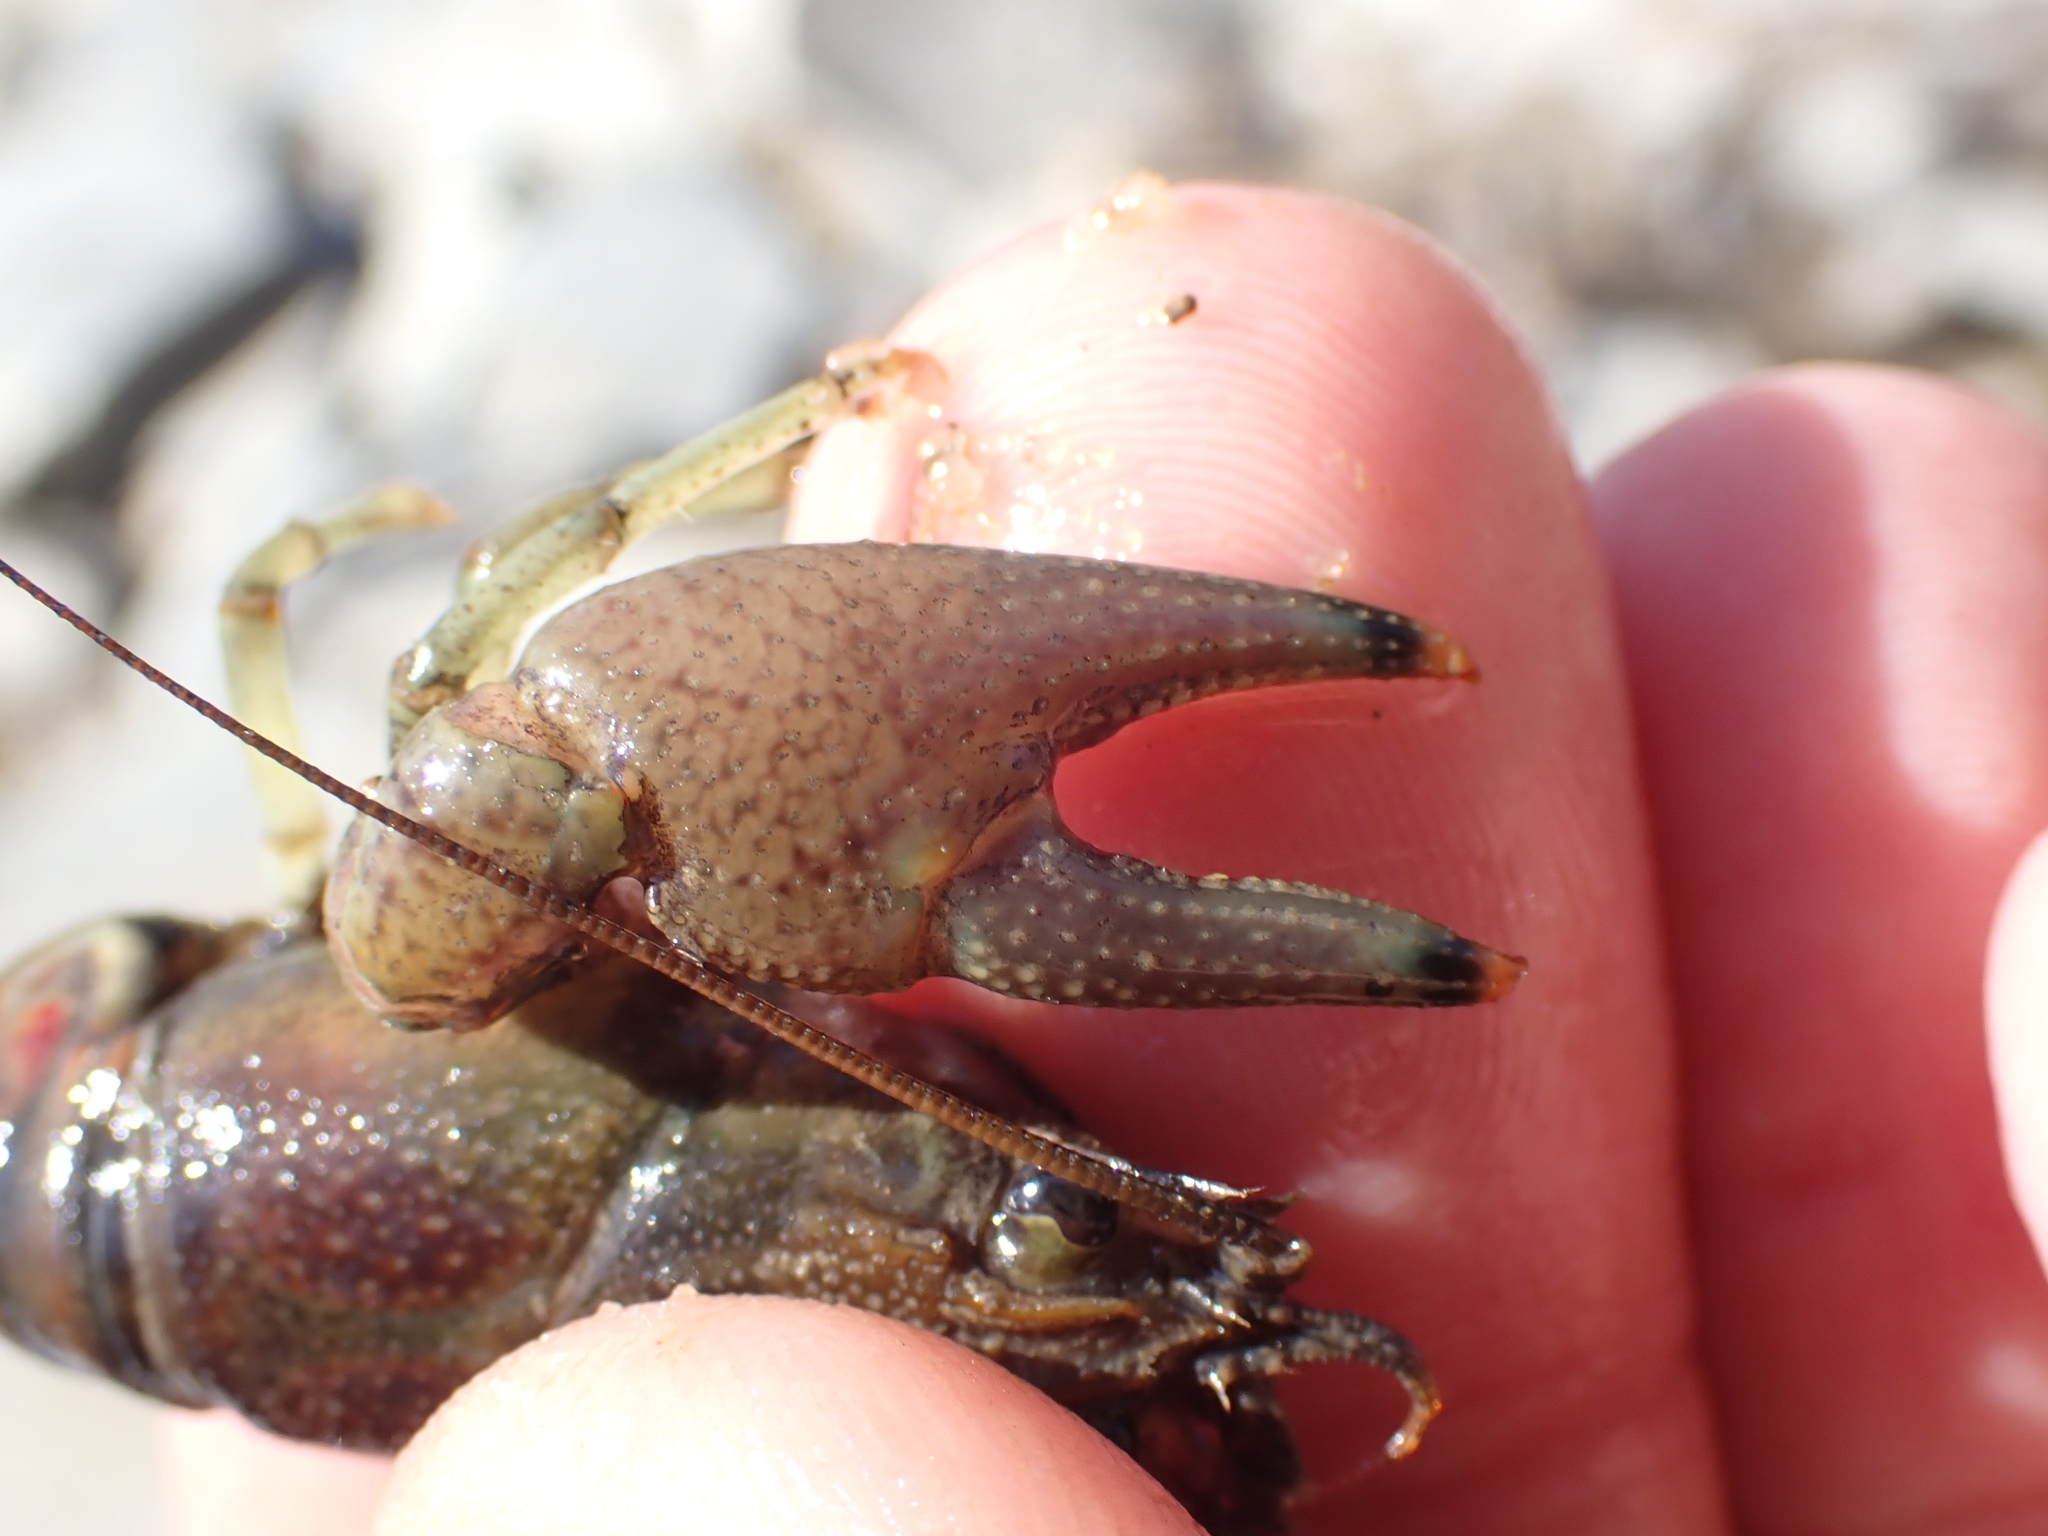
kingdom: Animalia
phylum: Arthropoda
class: Malacostraca
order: Decapoda
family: Cambaridae
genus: Faxonius
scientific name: Faxonius rusticus
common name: Rusty crayfish
